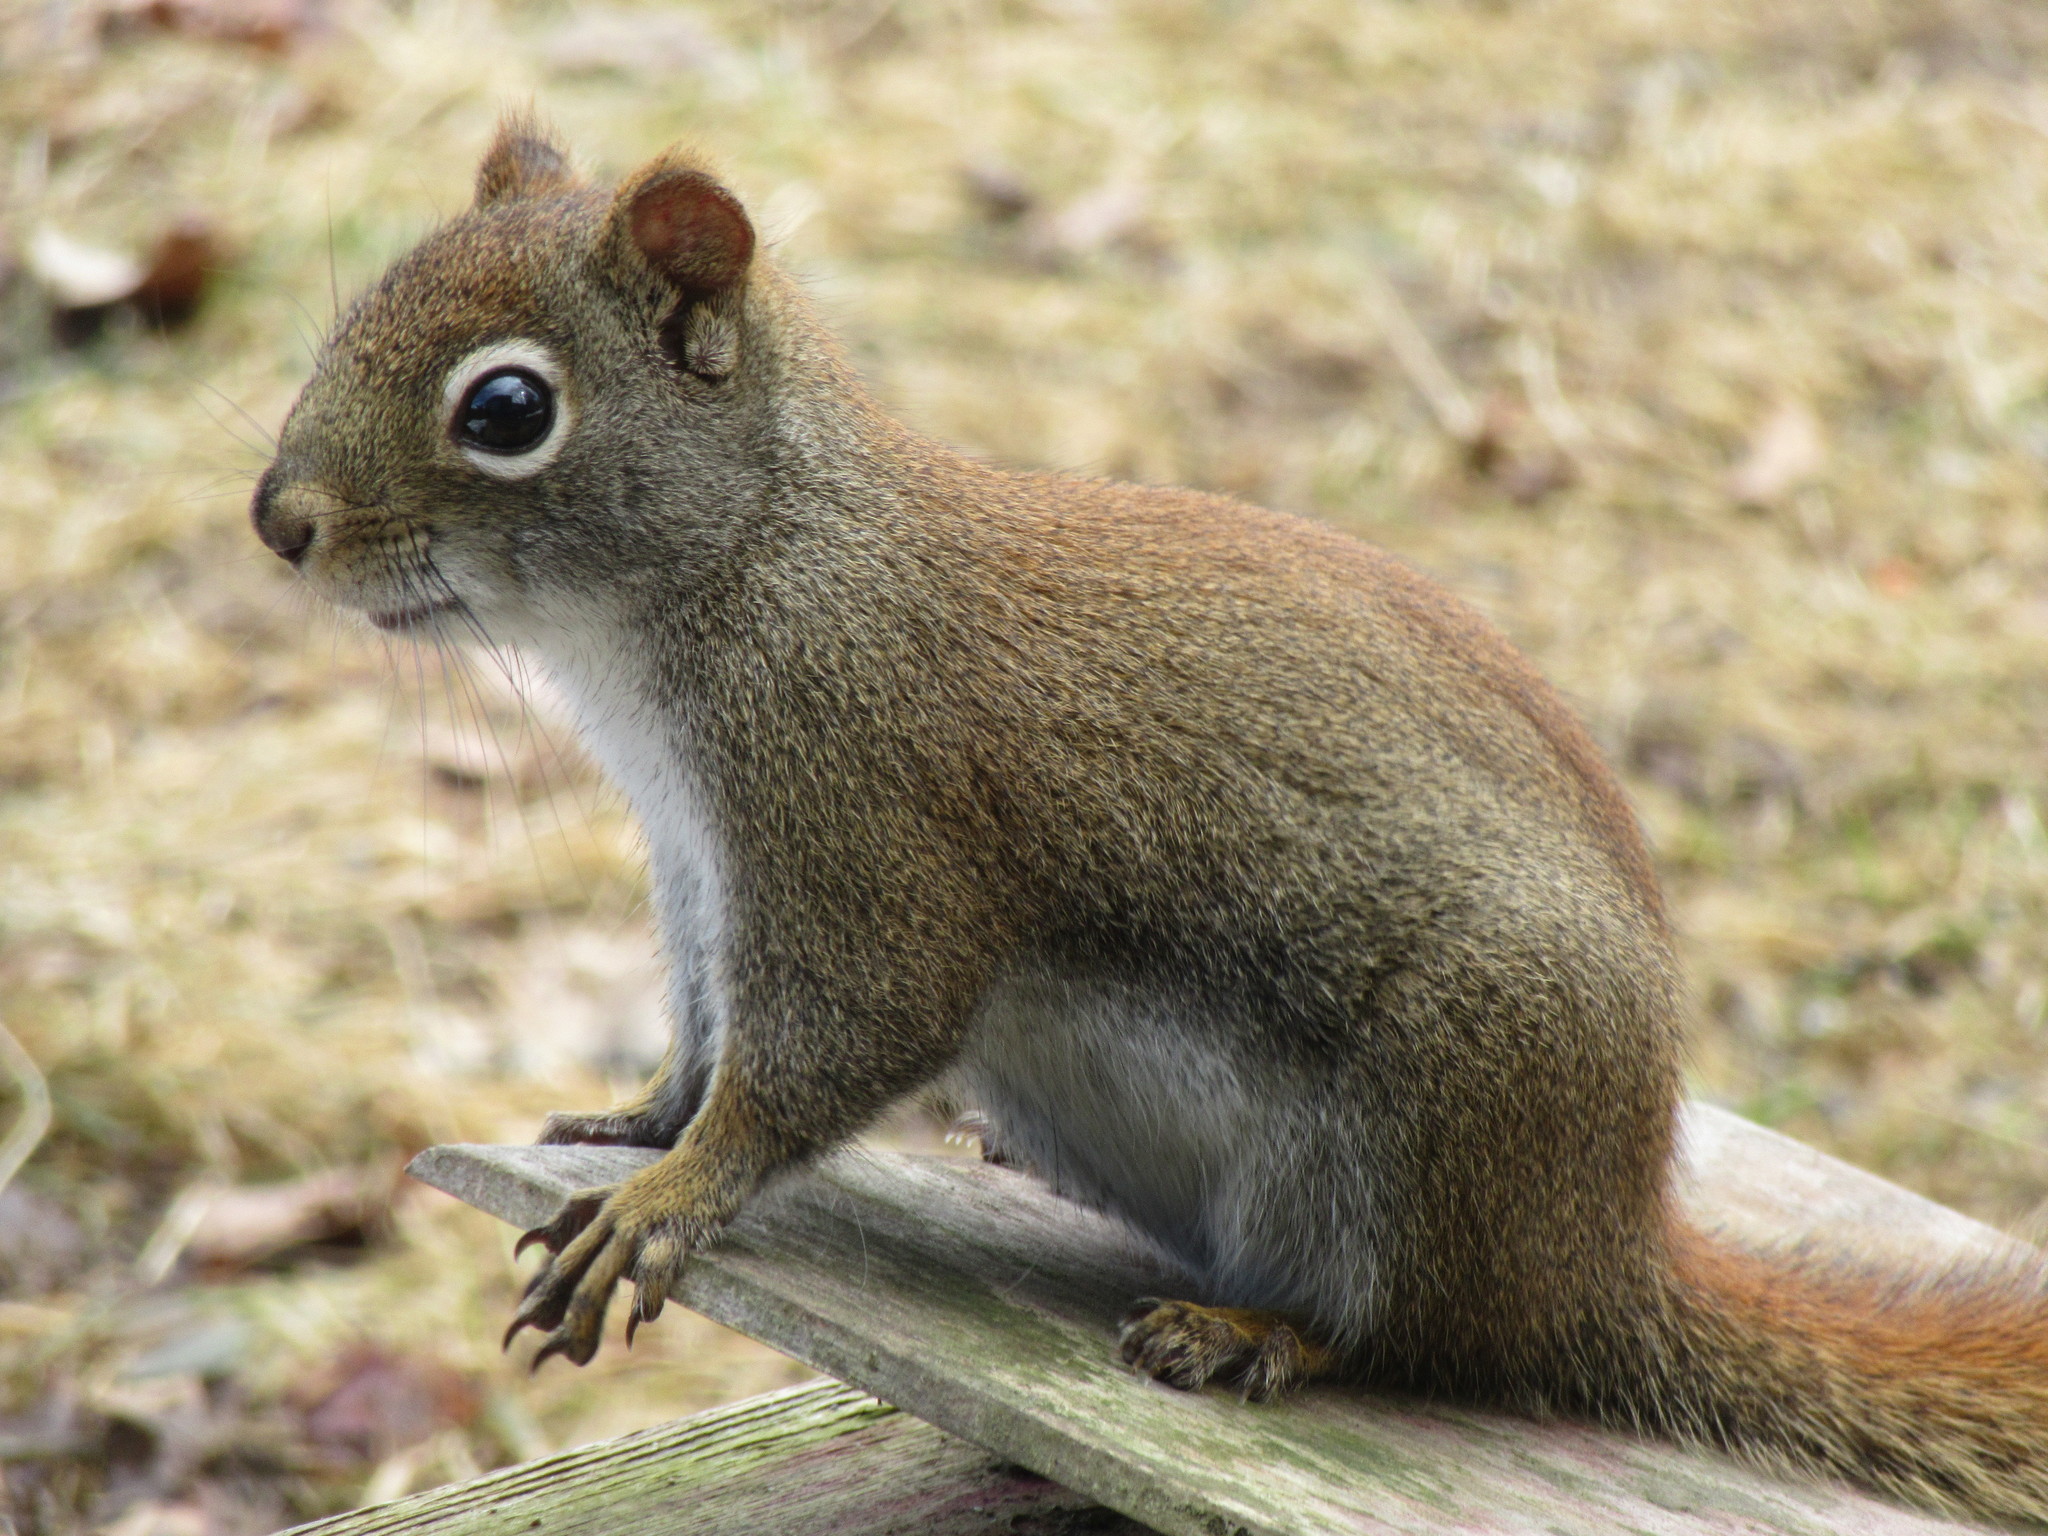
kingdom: Animalia
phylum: Chordata
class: Mammalia
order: Rodentia
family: Sciuridae
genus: Tamiasciurus
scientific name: Tamiasciurus hudsonicus
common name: Red squirrel
